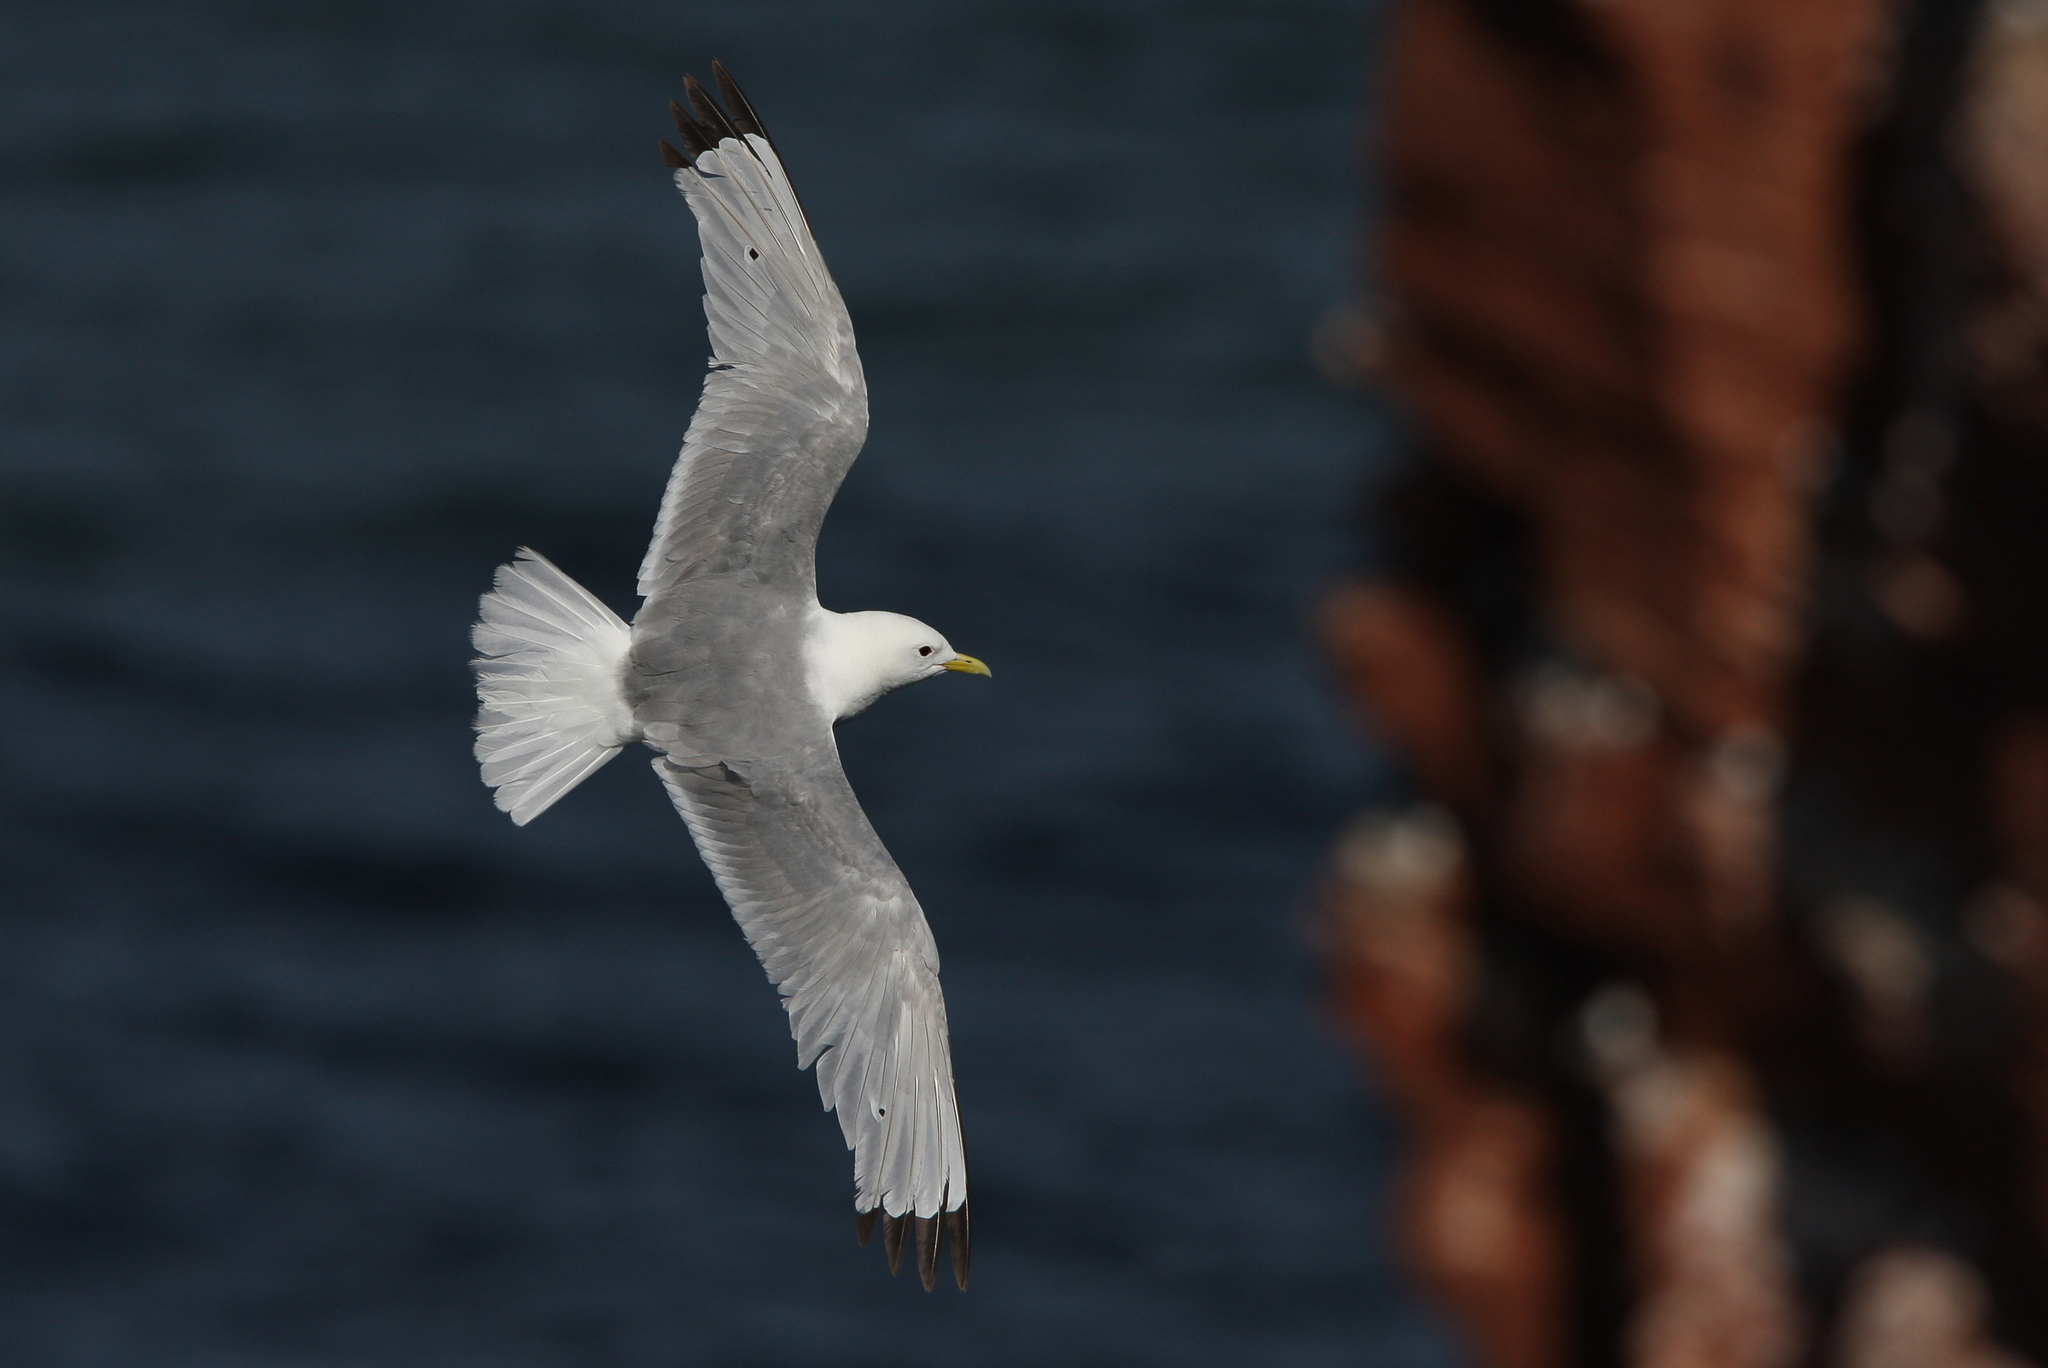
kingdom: Animalia
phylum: Chordata
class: Aves
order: Charadriiformes
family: Laridae
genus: Rissa
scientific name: Rissa tridactyla
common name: Black-legged kittiwake
